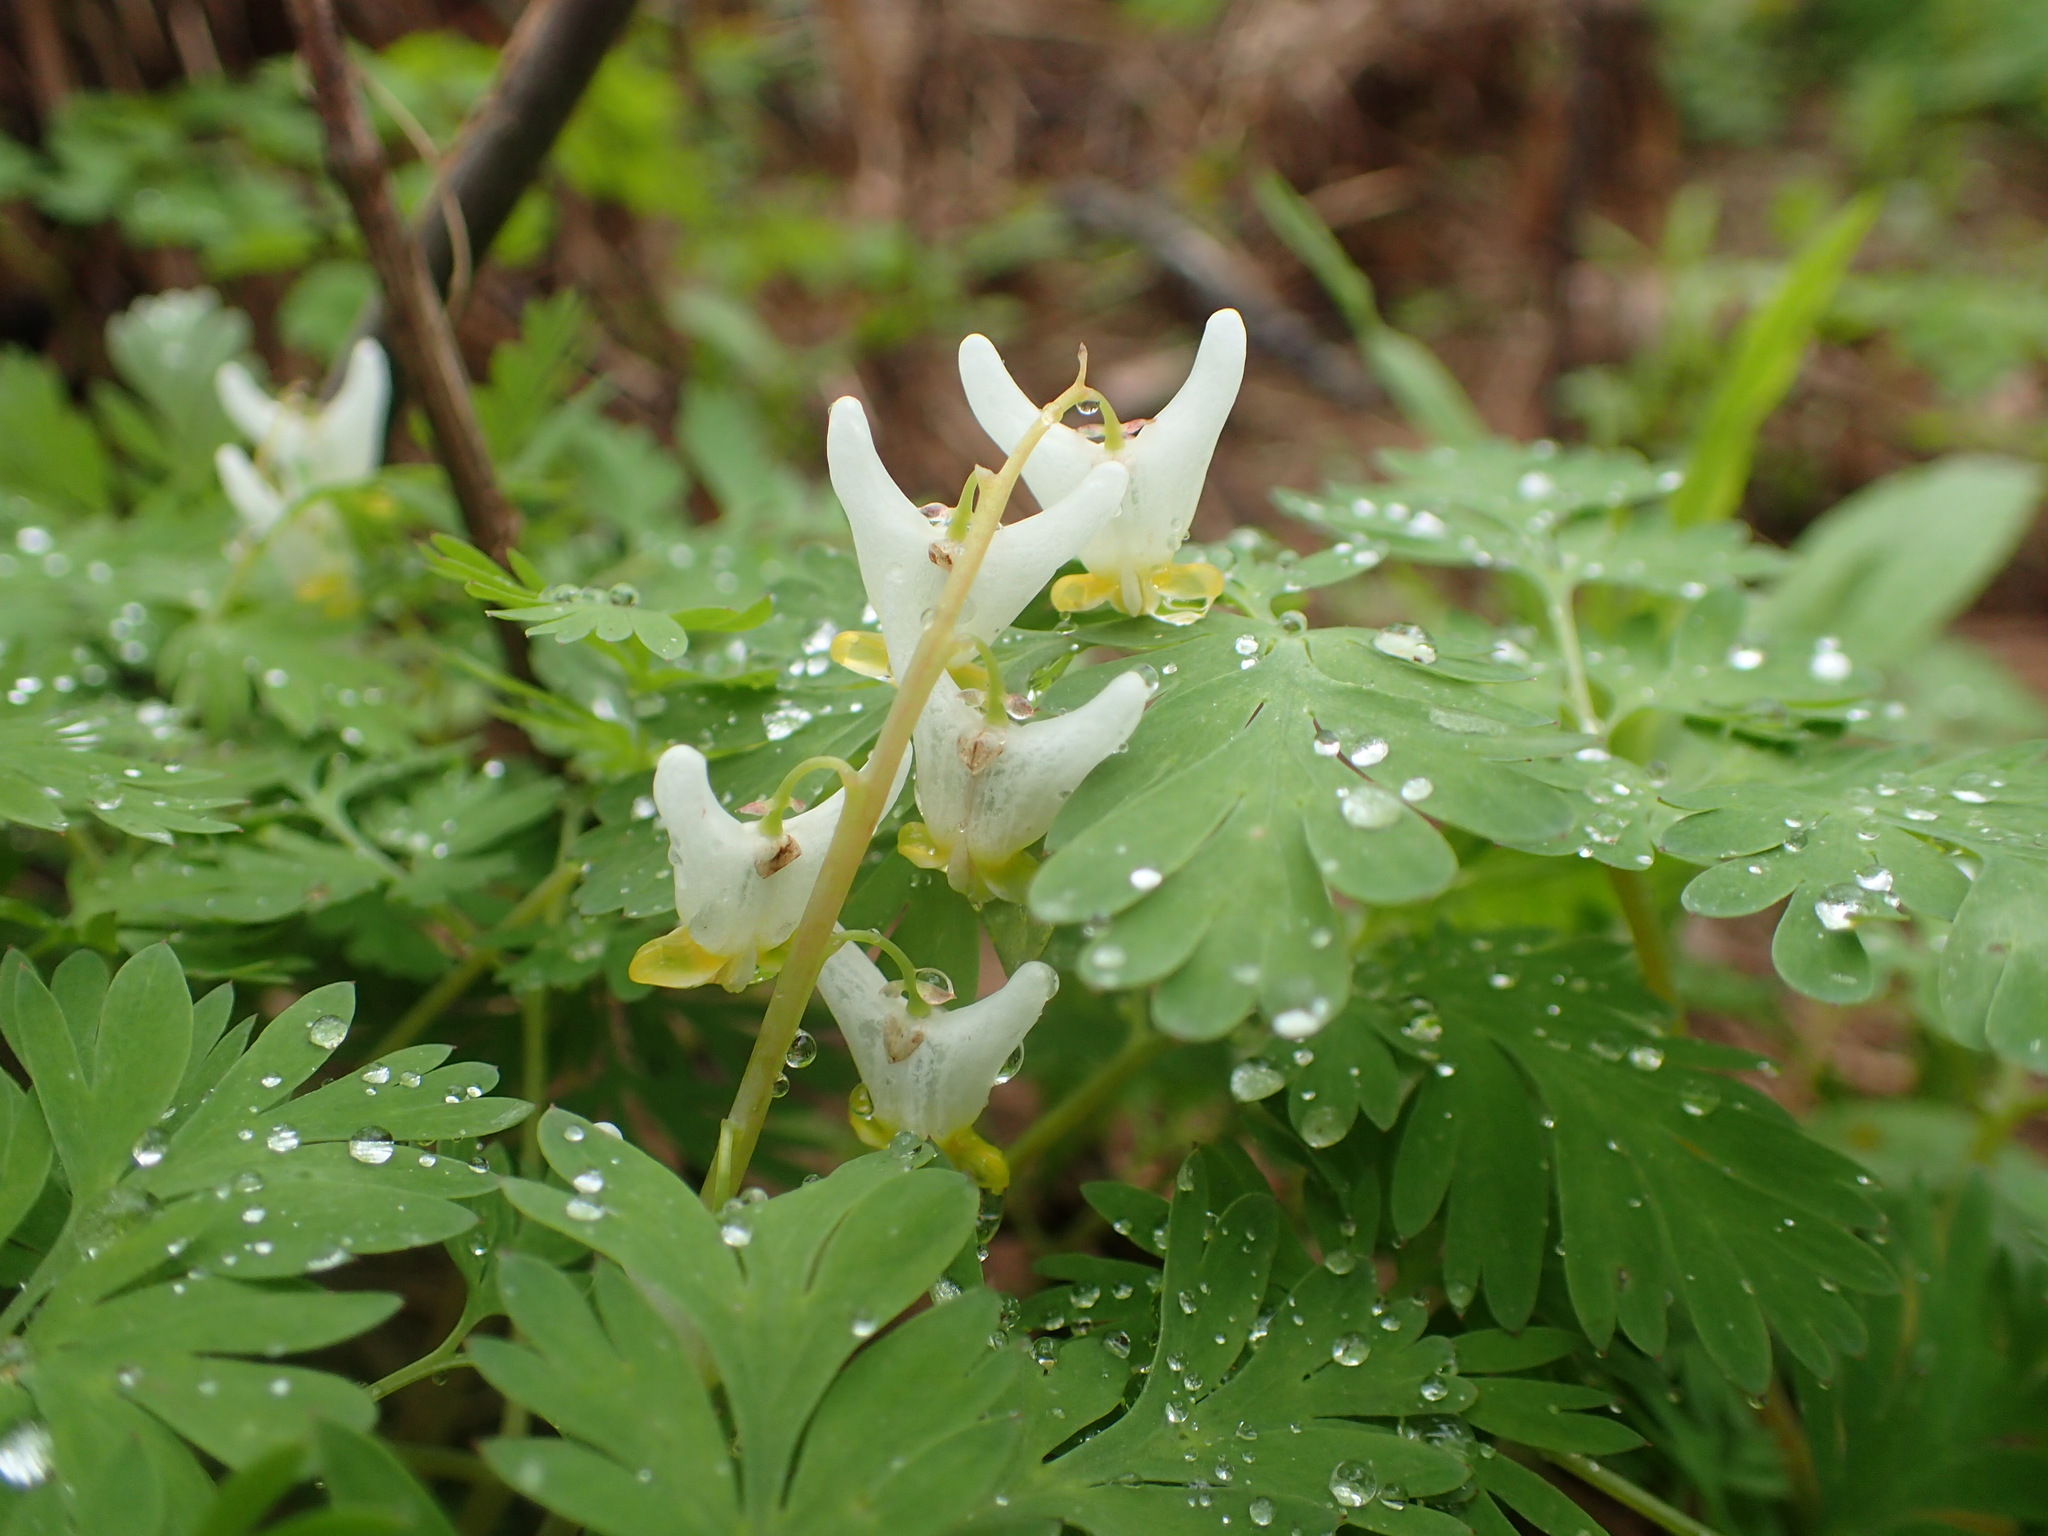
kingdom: Plantae
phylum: Tracheophyta
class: Magnoliopsida
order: Ranunculales
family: Papaveraceae
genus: Dicentra
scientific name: Dicentra cucullaria
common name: Dutchman's breeches
